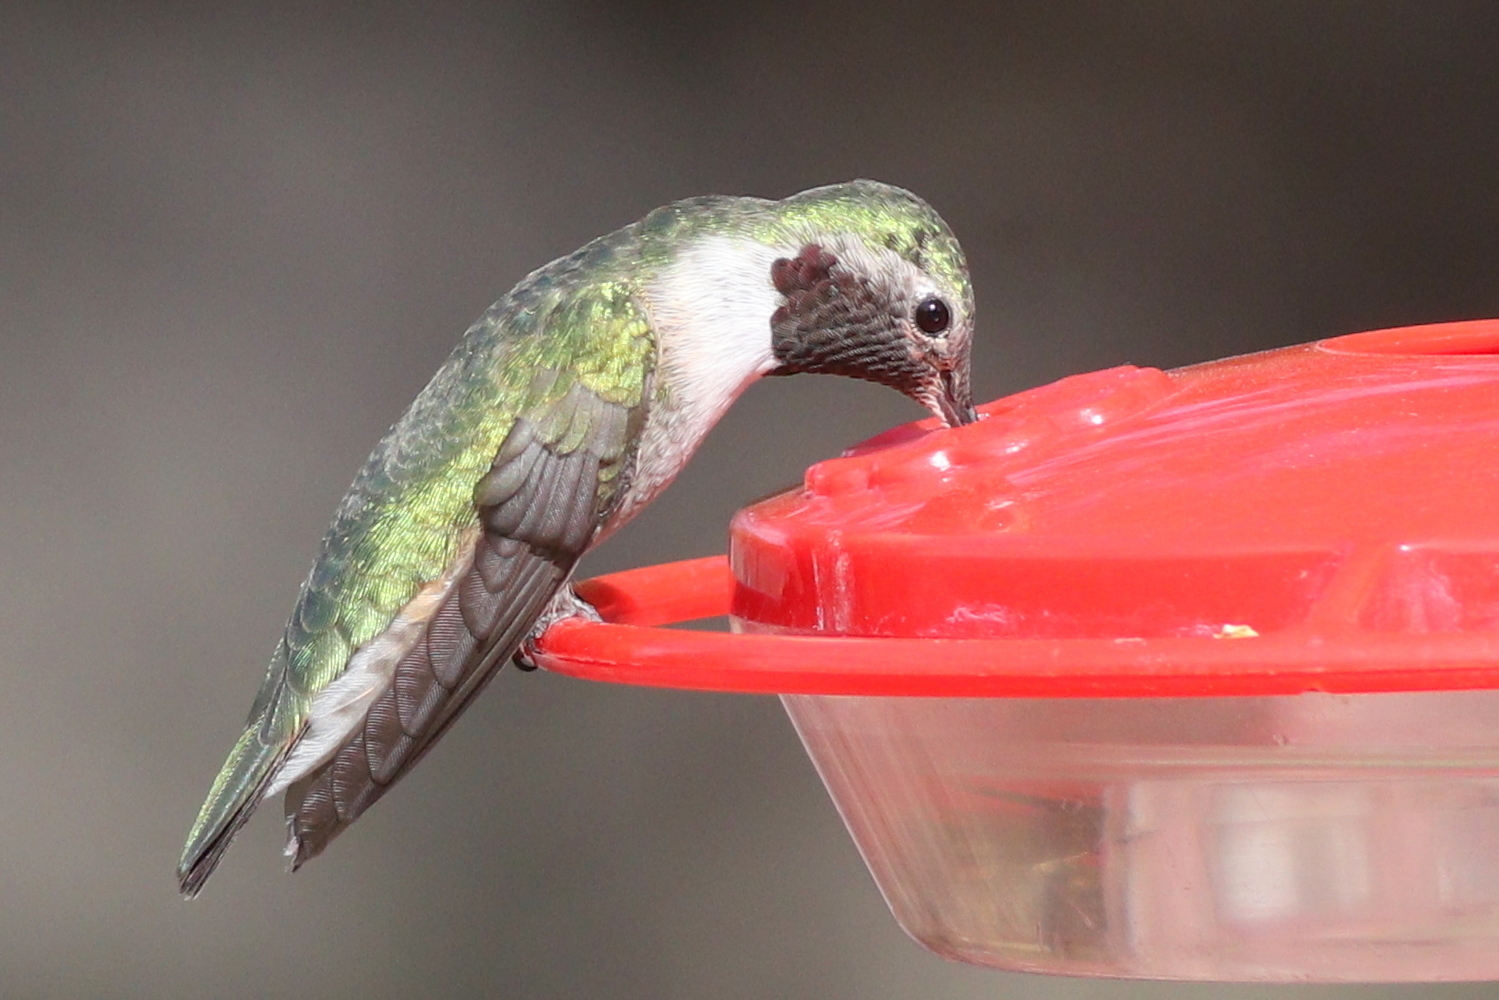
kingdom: Animalia
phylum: Chordata
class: Aves
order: Apodiformes
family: Trochilidae
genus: Selasphorus
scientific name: Selasphorus platycercus
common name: Broad-tailed hummingbird
